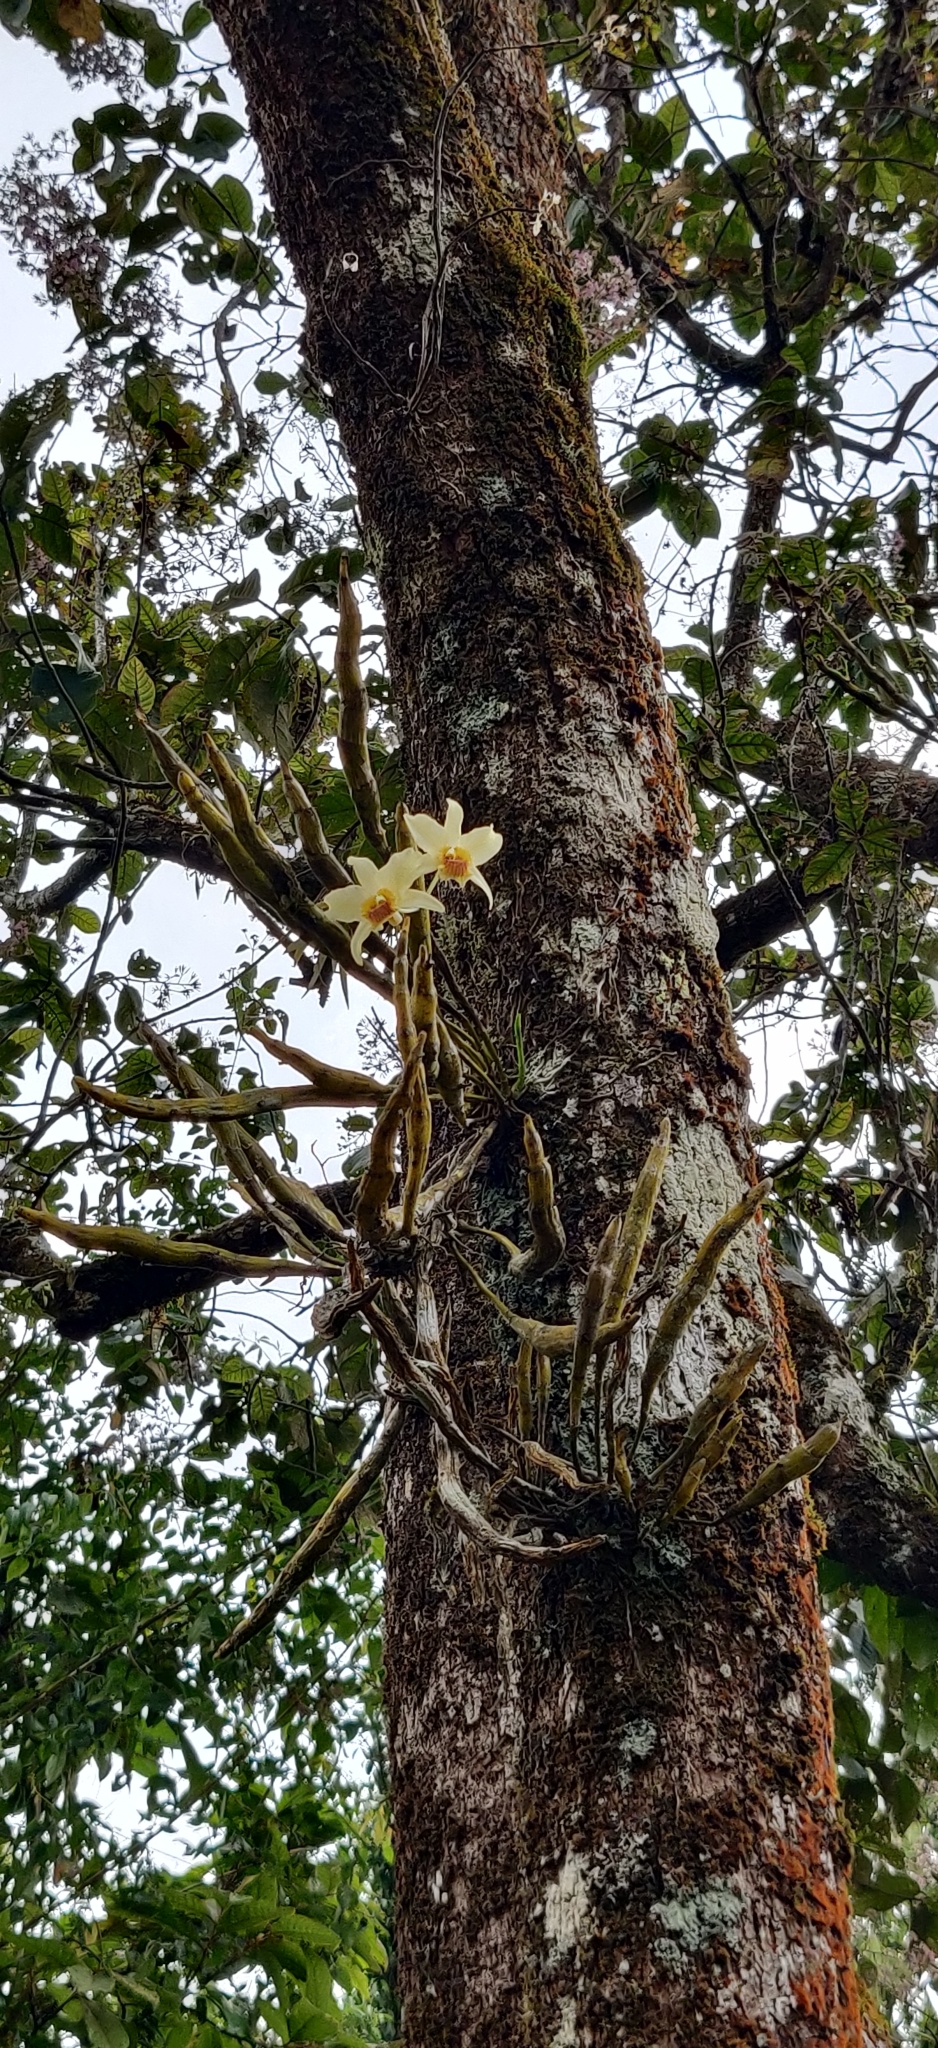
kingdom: Plantae
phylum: Tracheophyta
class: Liliopsida
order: Asparagales
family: Orchidaceae
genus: Dendrobium
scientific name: Dendrobium heterocarpum
